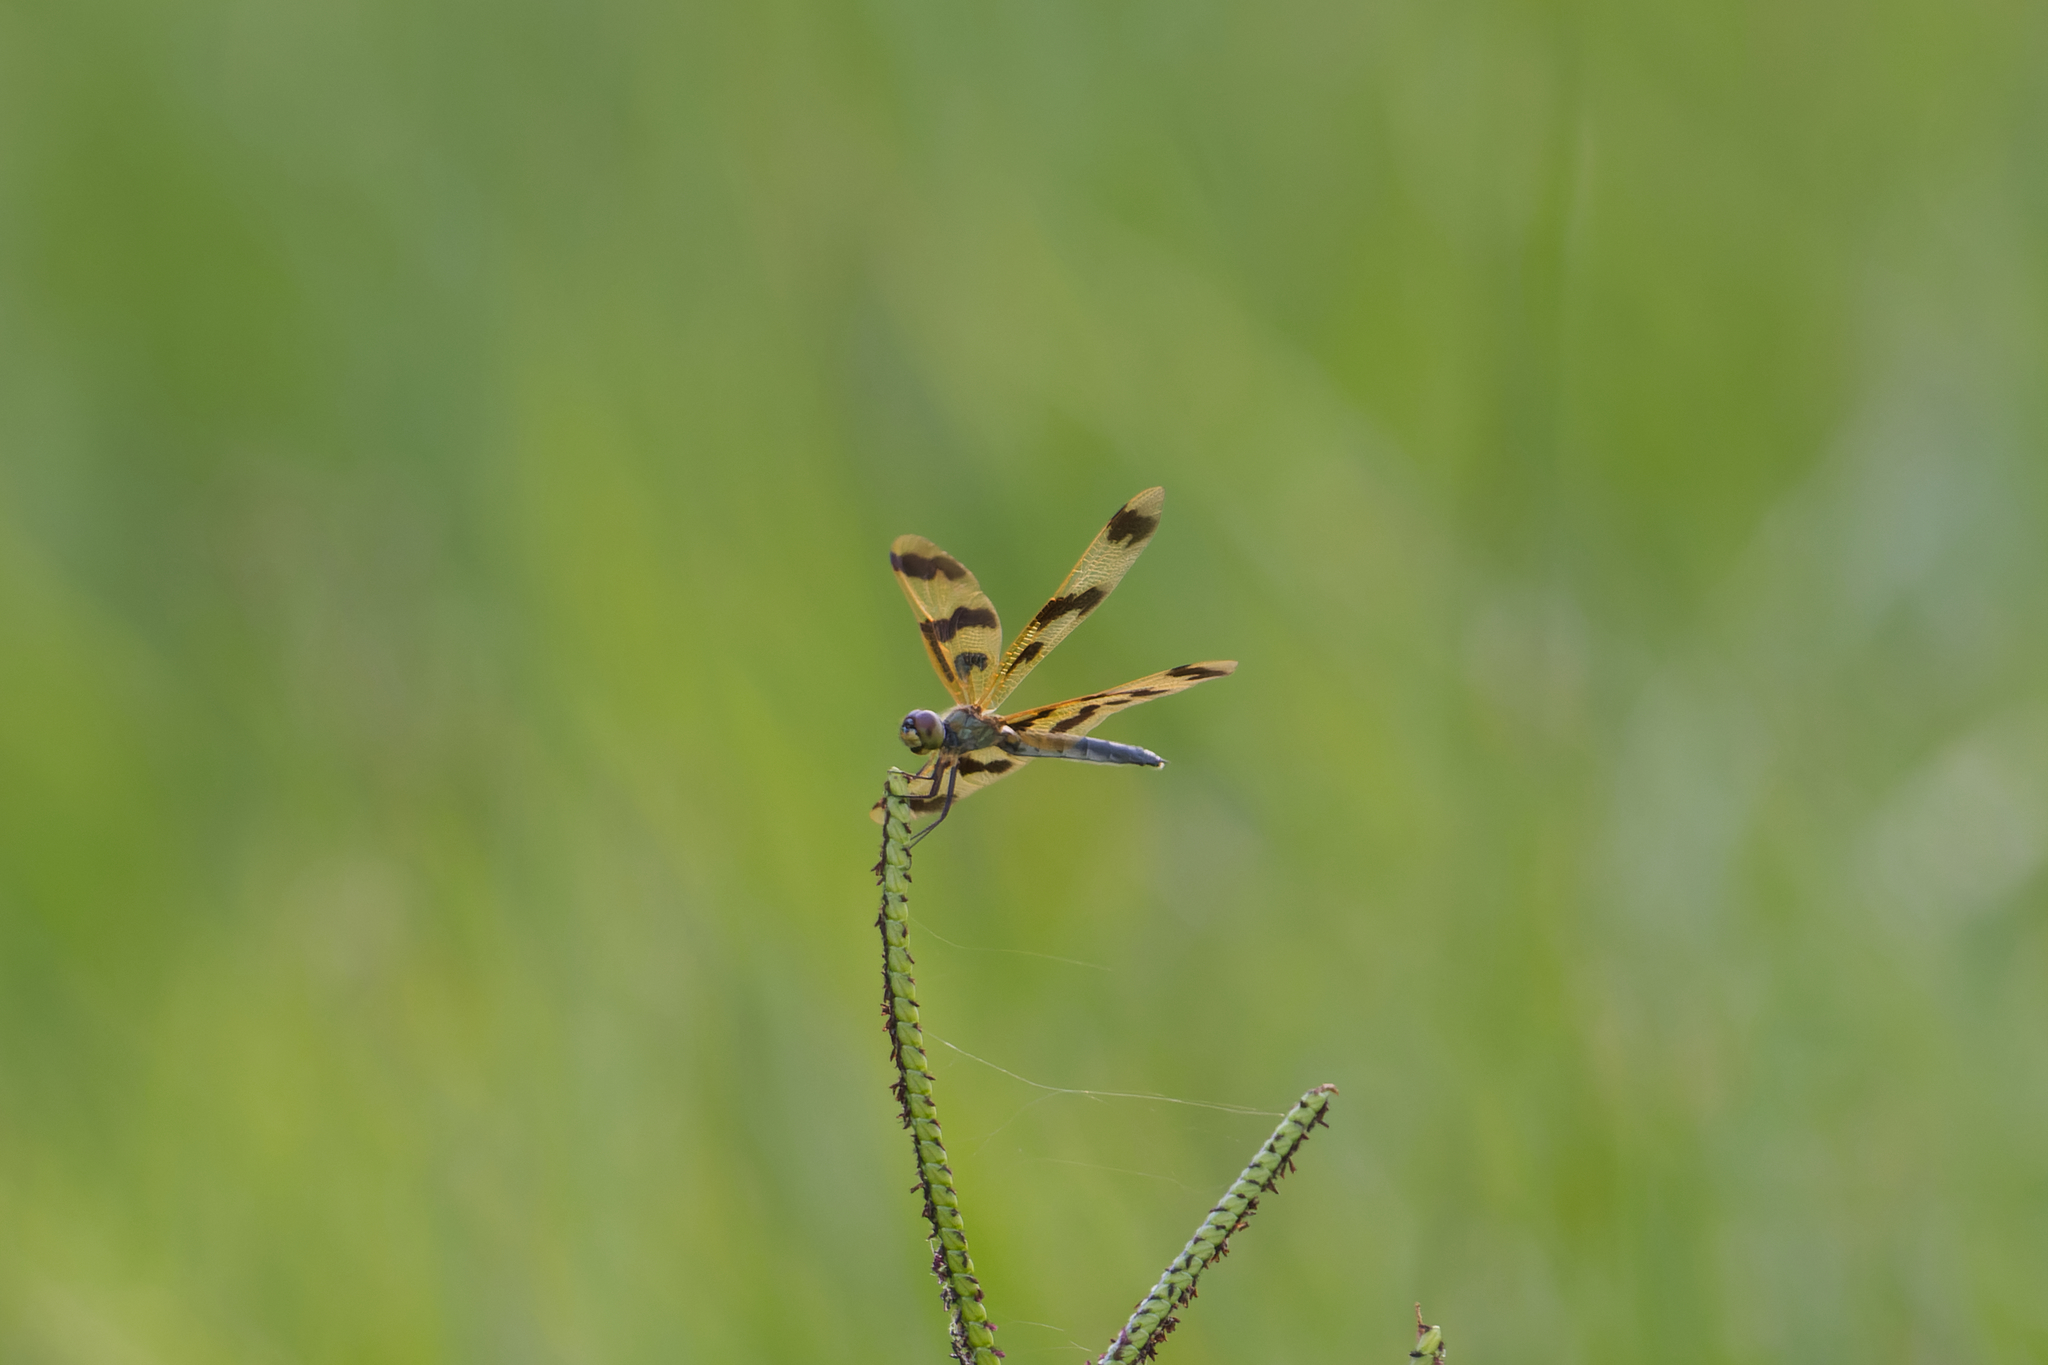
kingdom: Animalia
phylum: Arthropoda
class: Insecta
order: Odonata
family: Libellulidae
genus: Rhyothemis
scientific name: Rhyothemis graphiptera
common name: Graphic flutterer
